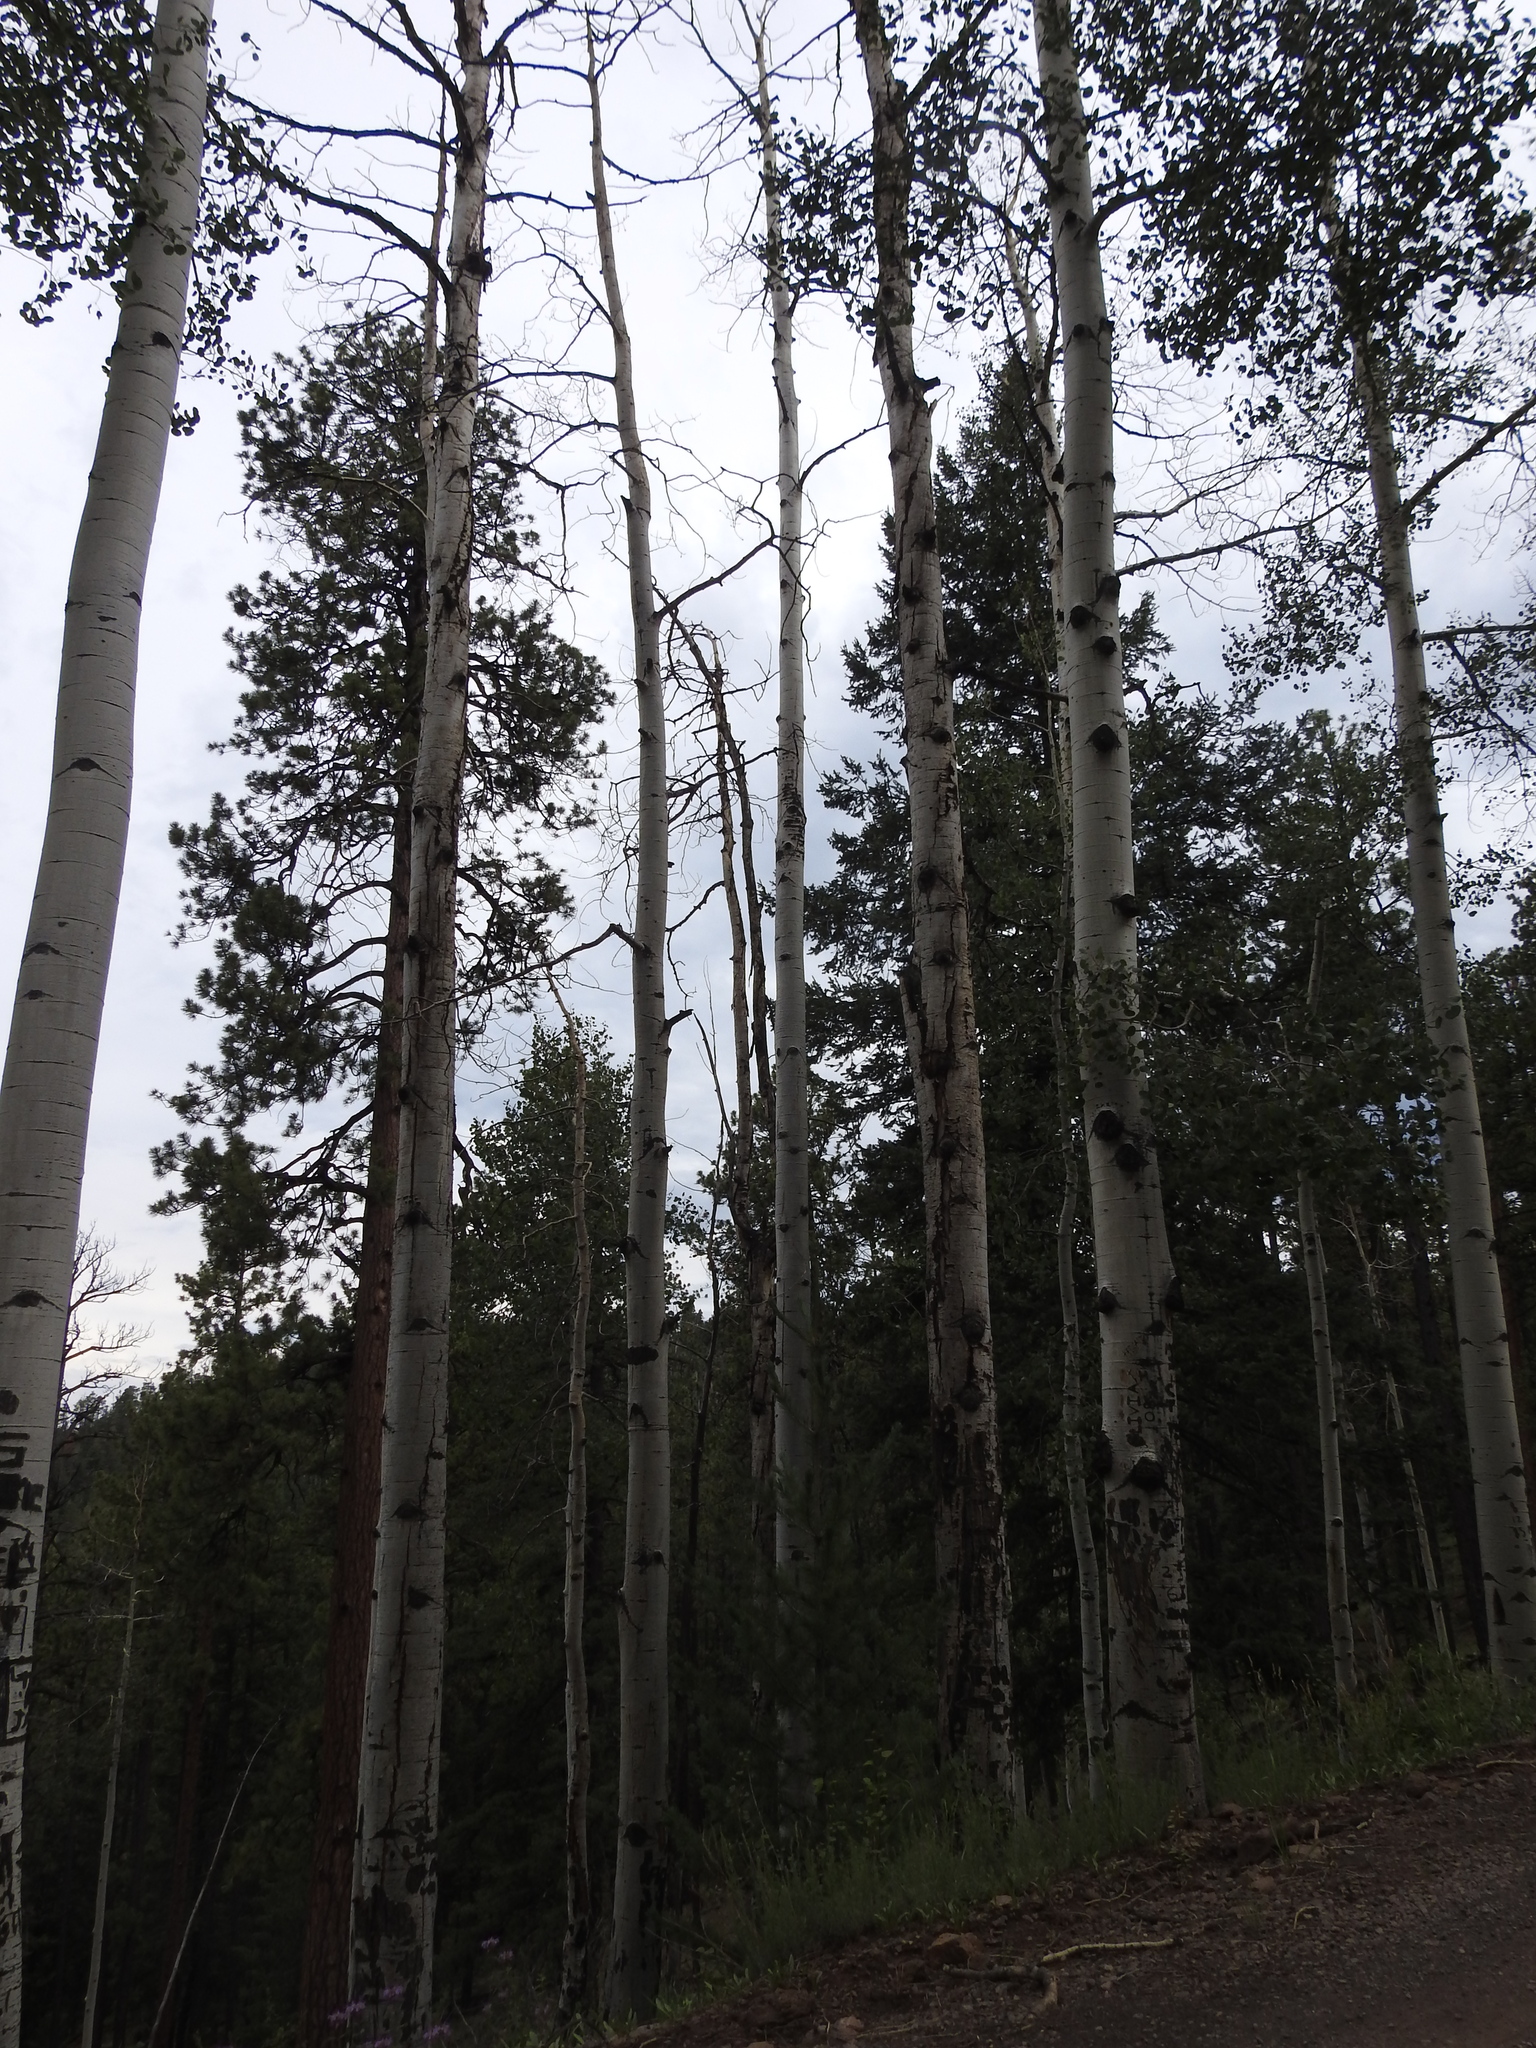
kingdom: Plantae
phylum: Tracheophyta
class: Magnoliopsida
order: Malpighiales
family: Salicaceae
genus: Populus
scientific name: Populus tremuloides
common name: Quaking aspen
